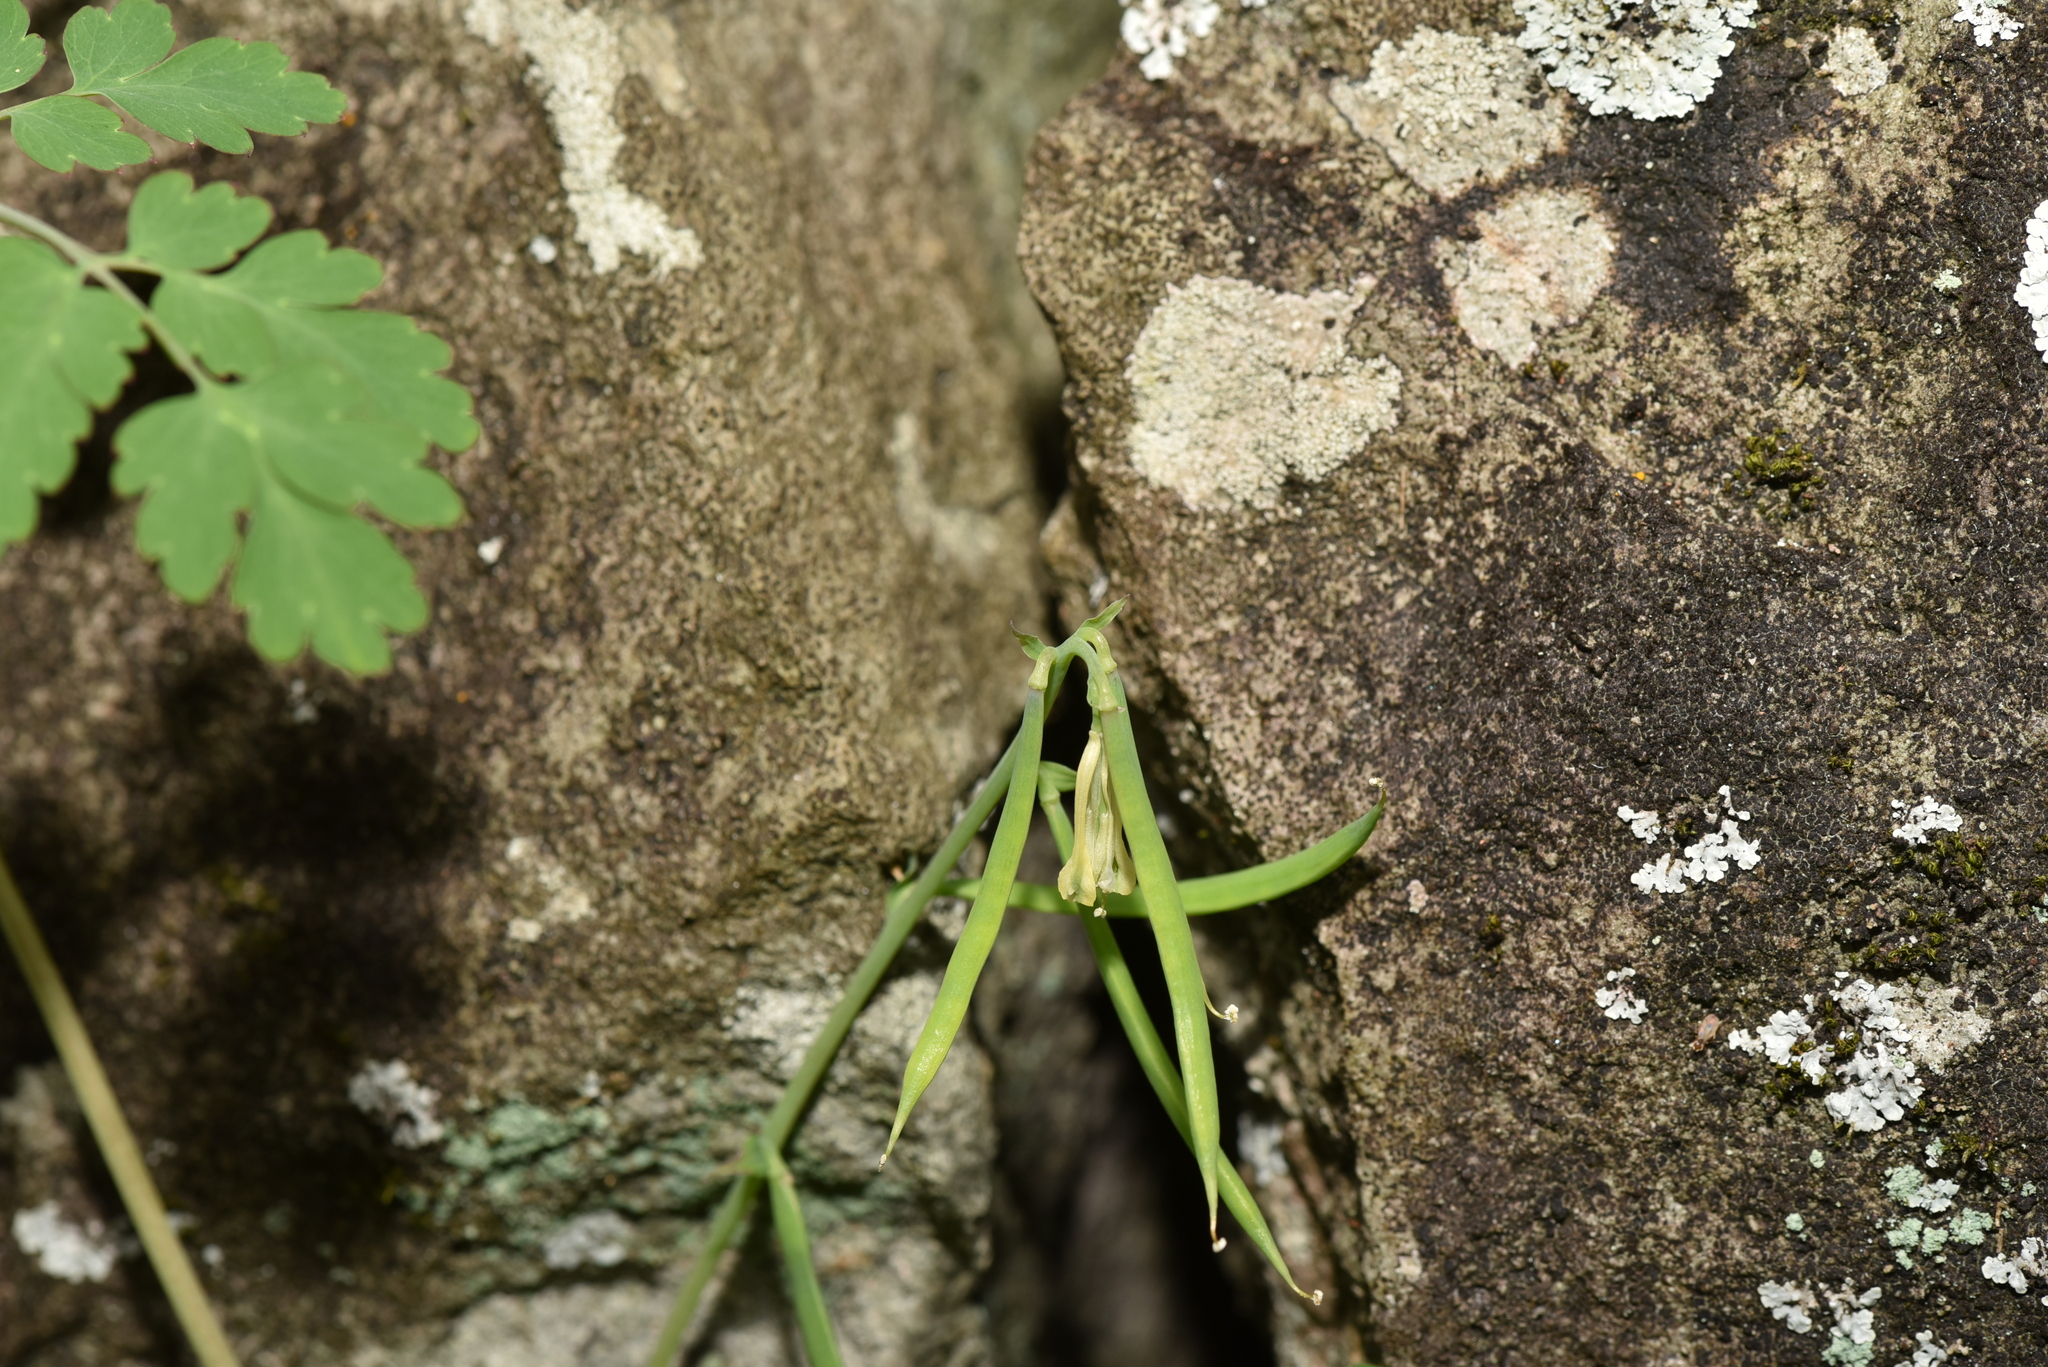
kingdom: Plantae
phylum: Tracheophyta
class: Magnoliopsida
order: Ranunculales
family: Papaveraceae
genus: Corydalis
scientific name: Corydalis balansae
